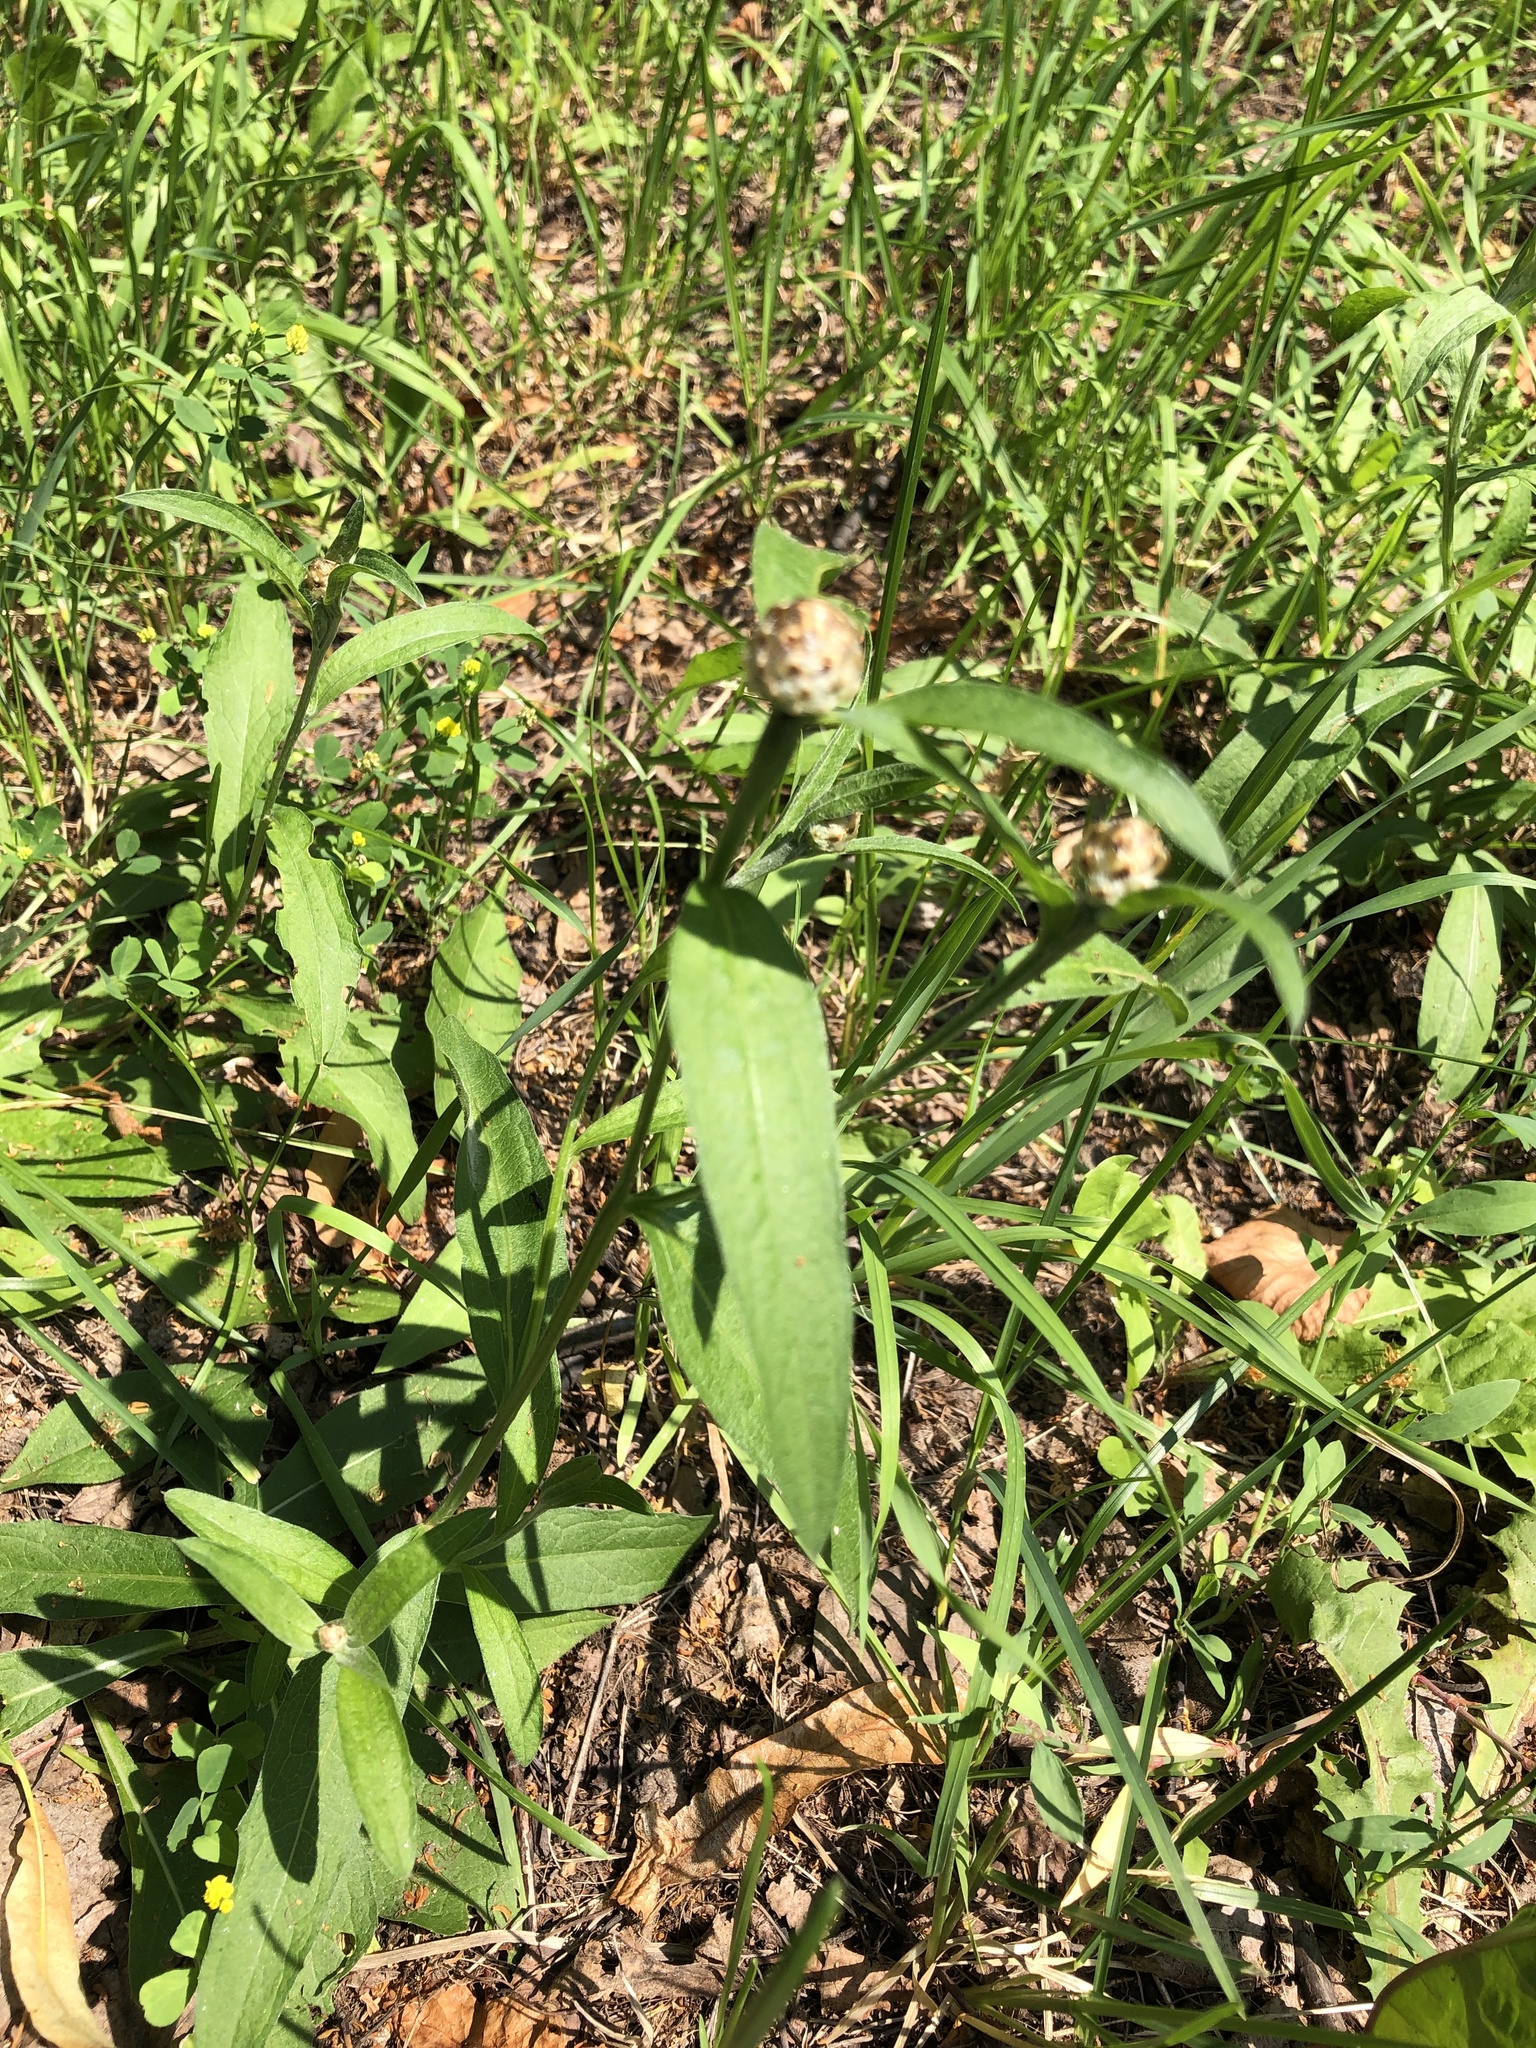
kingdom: Plantae
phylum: Tracheophyta
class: Magnoliopsida
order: Asterales
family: Asteraceae
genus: Centaurea
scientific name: Centaurea jacea
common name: Brown knapweed
